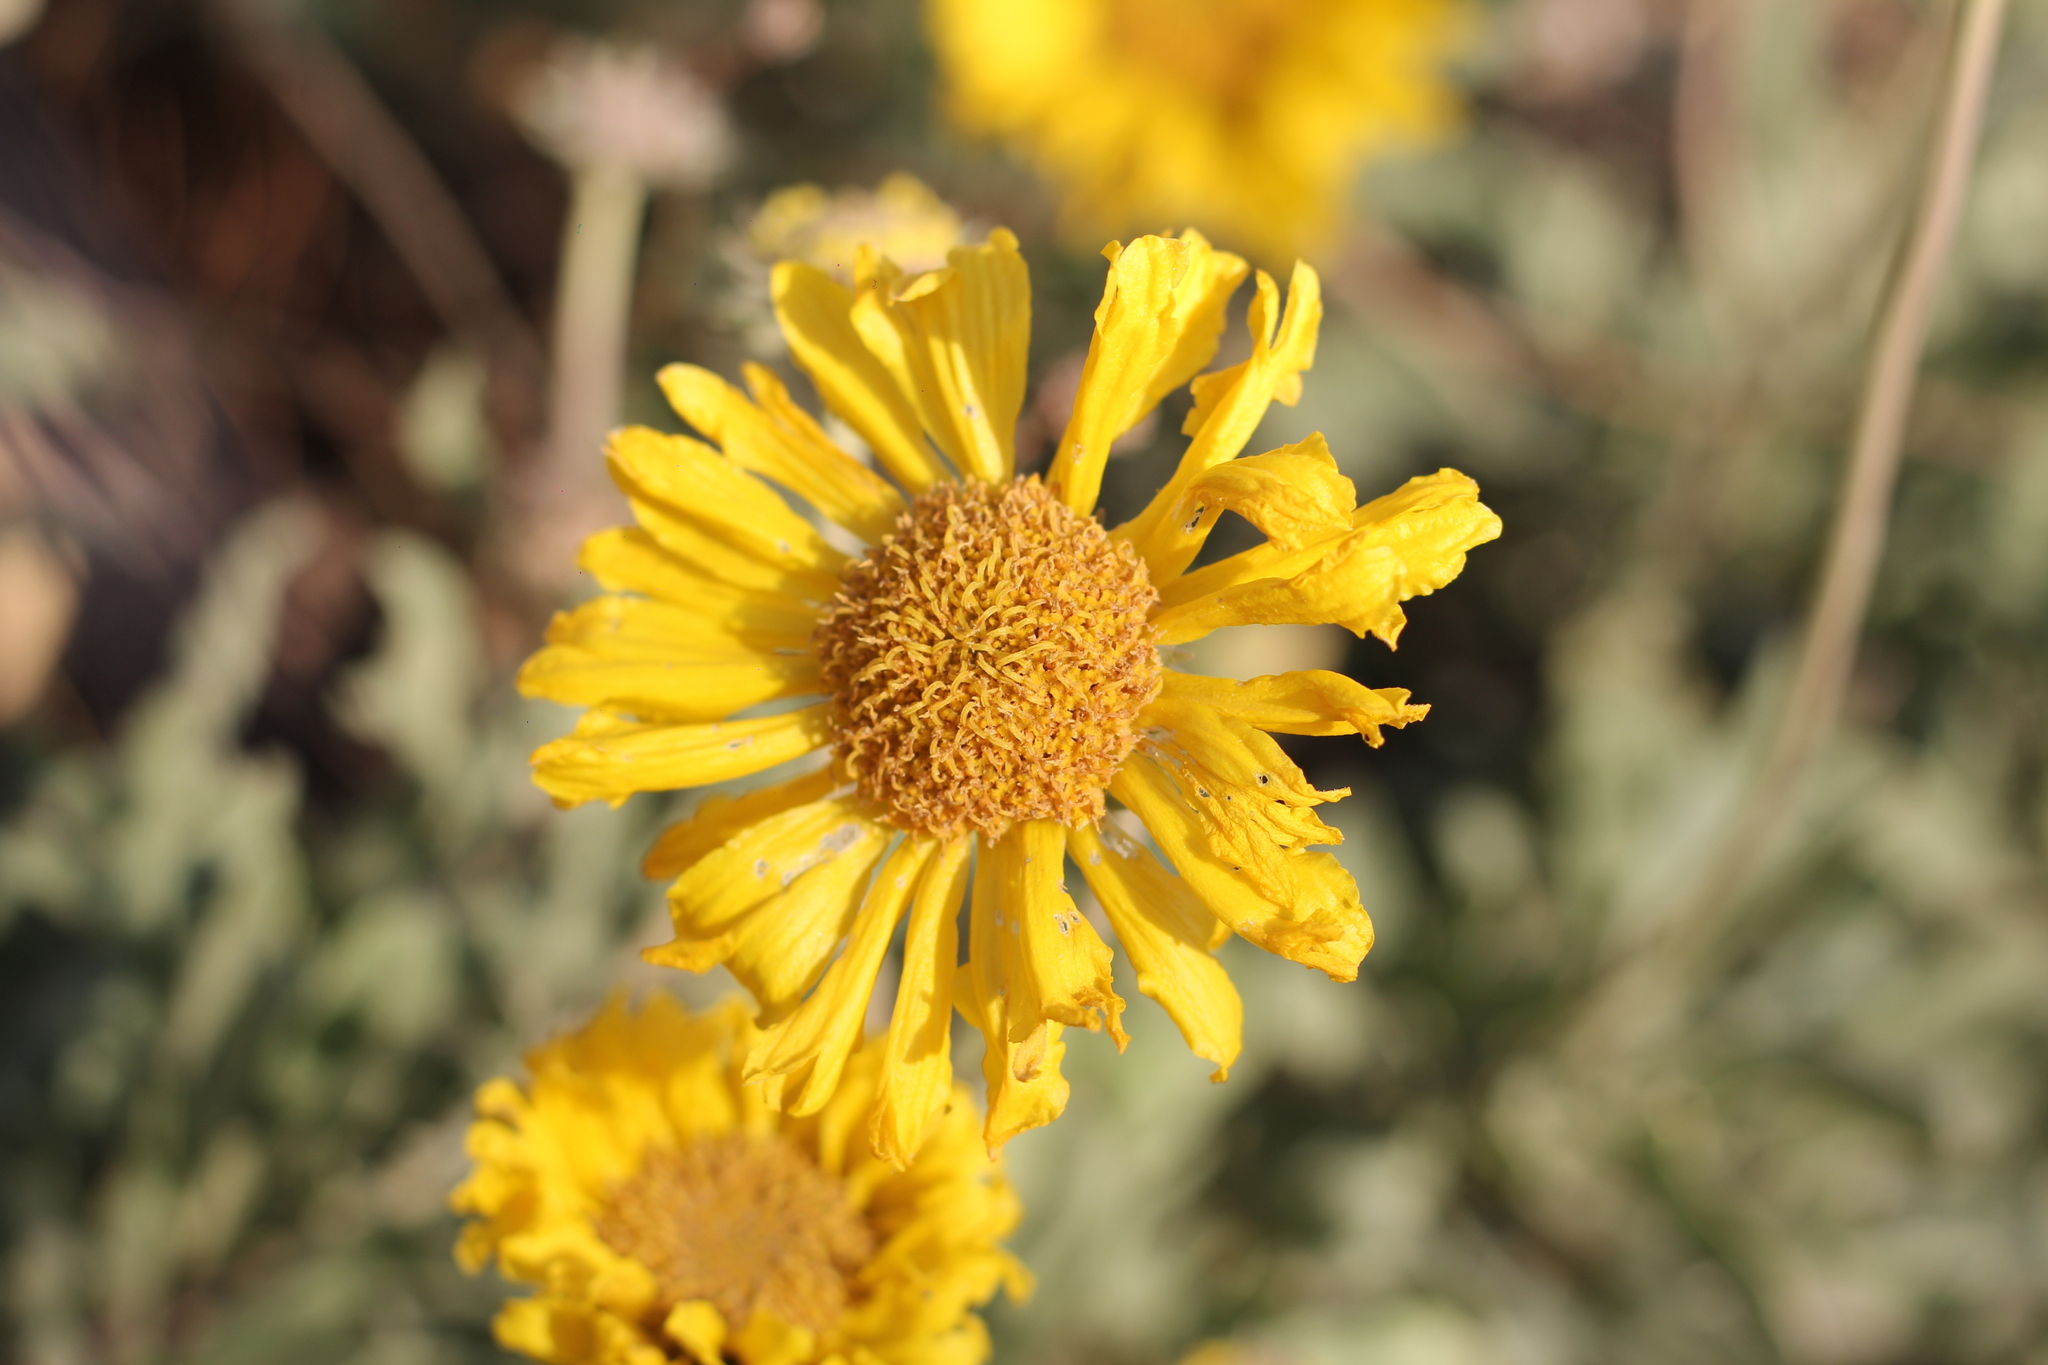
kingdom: Plantae
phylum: Tracheophyta
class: Magnoliopsida
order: Asterales
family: Asteraceae
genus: Gaillardia
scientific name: Gaillardia cabrerae
